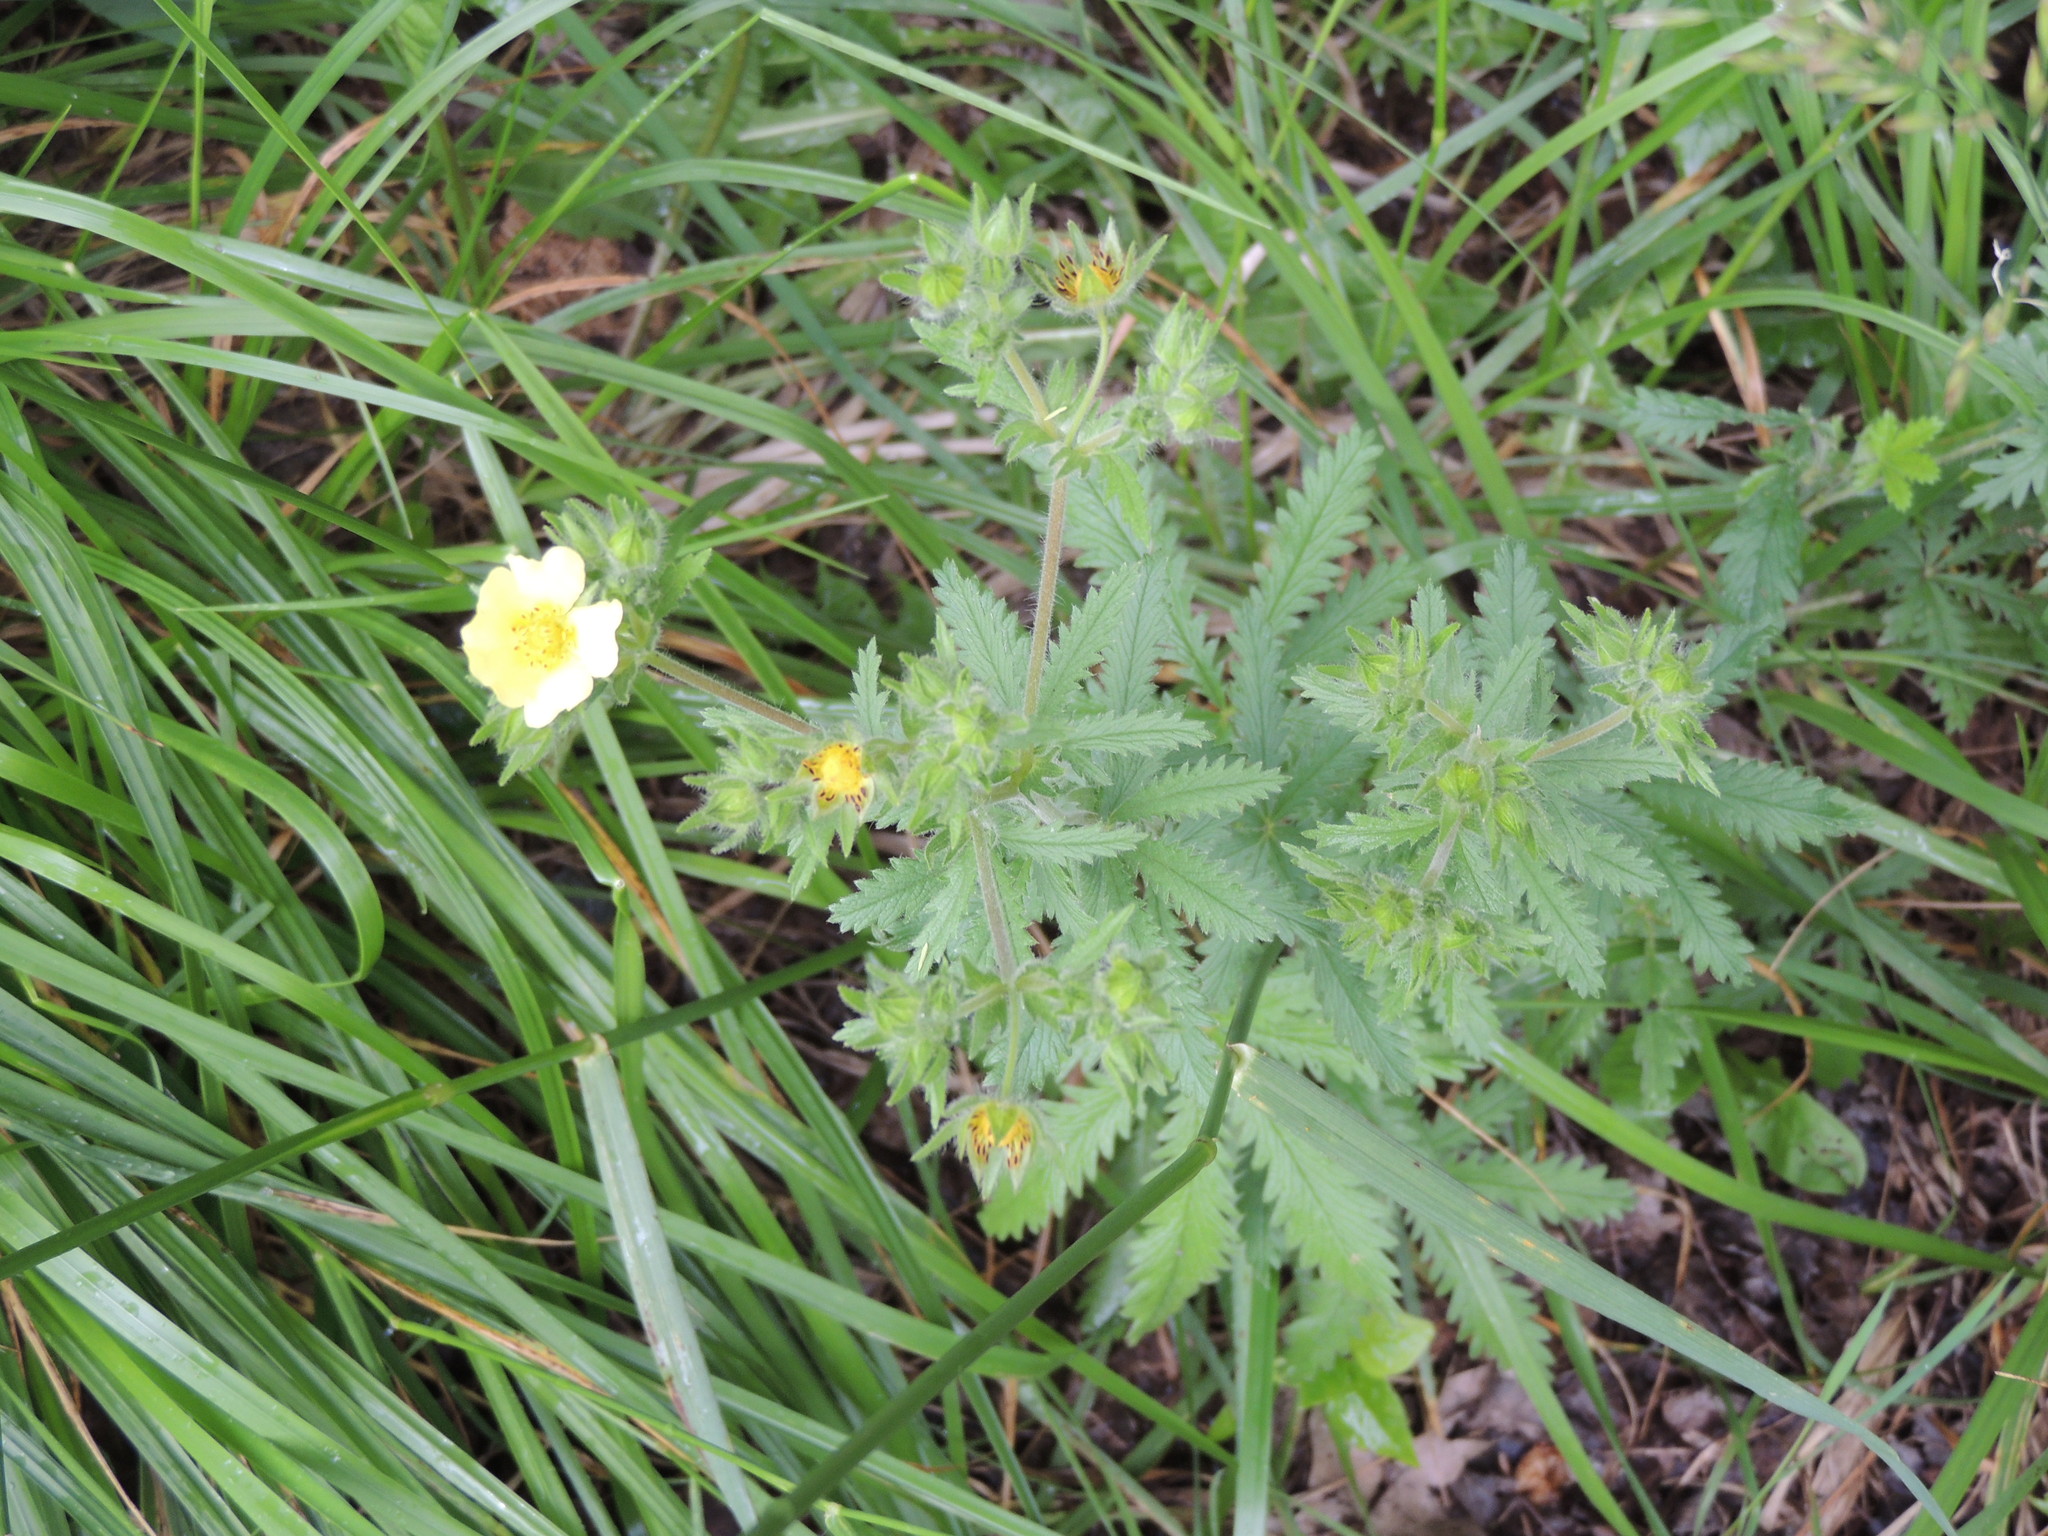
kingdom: Plantae
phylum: Tracheophyta
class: Magnoliopsida
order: Rosales
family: Rosaceae
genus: Potentilla
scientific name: Potentilla recta
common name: Sulphur cinquefoil
